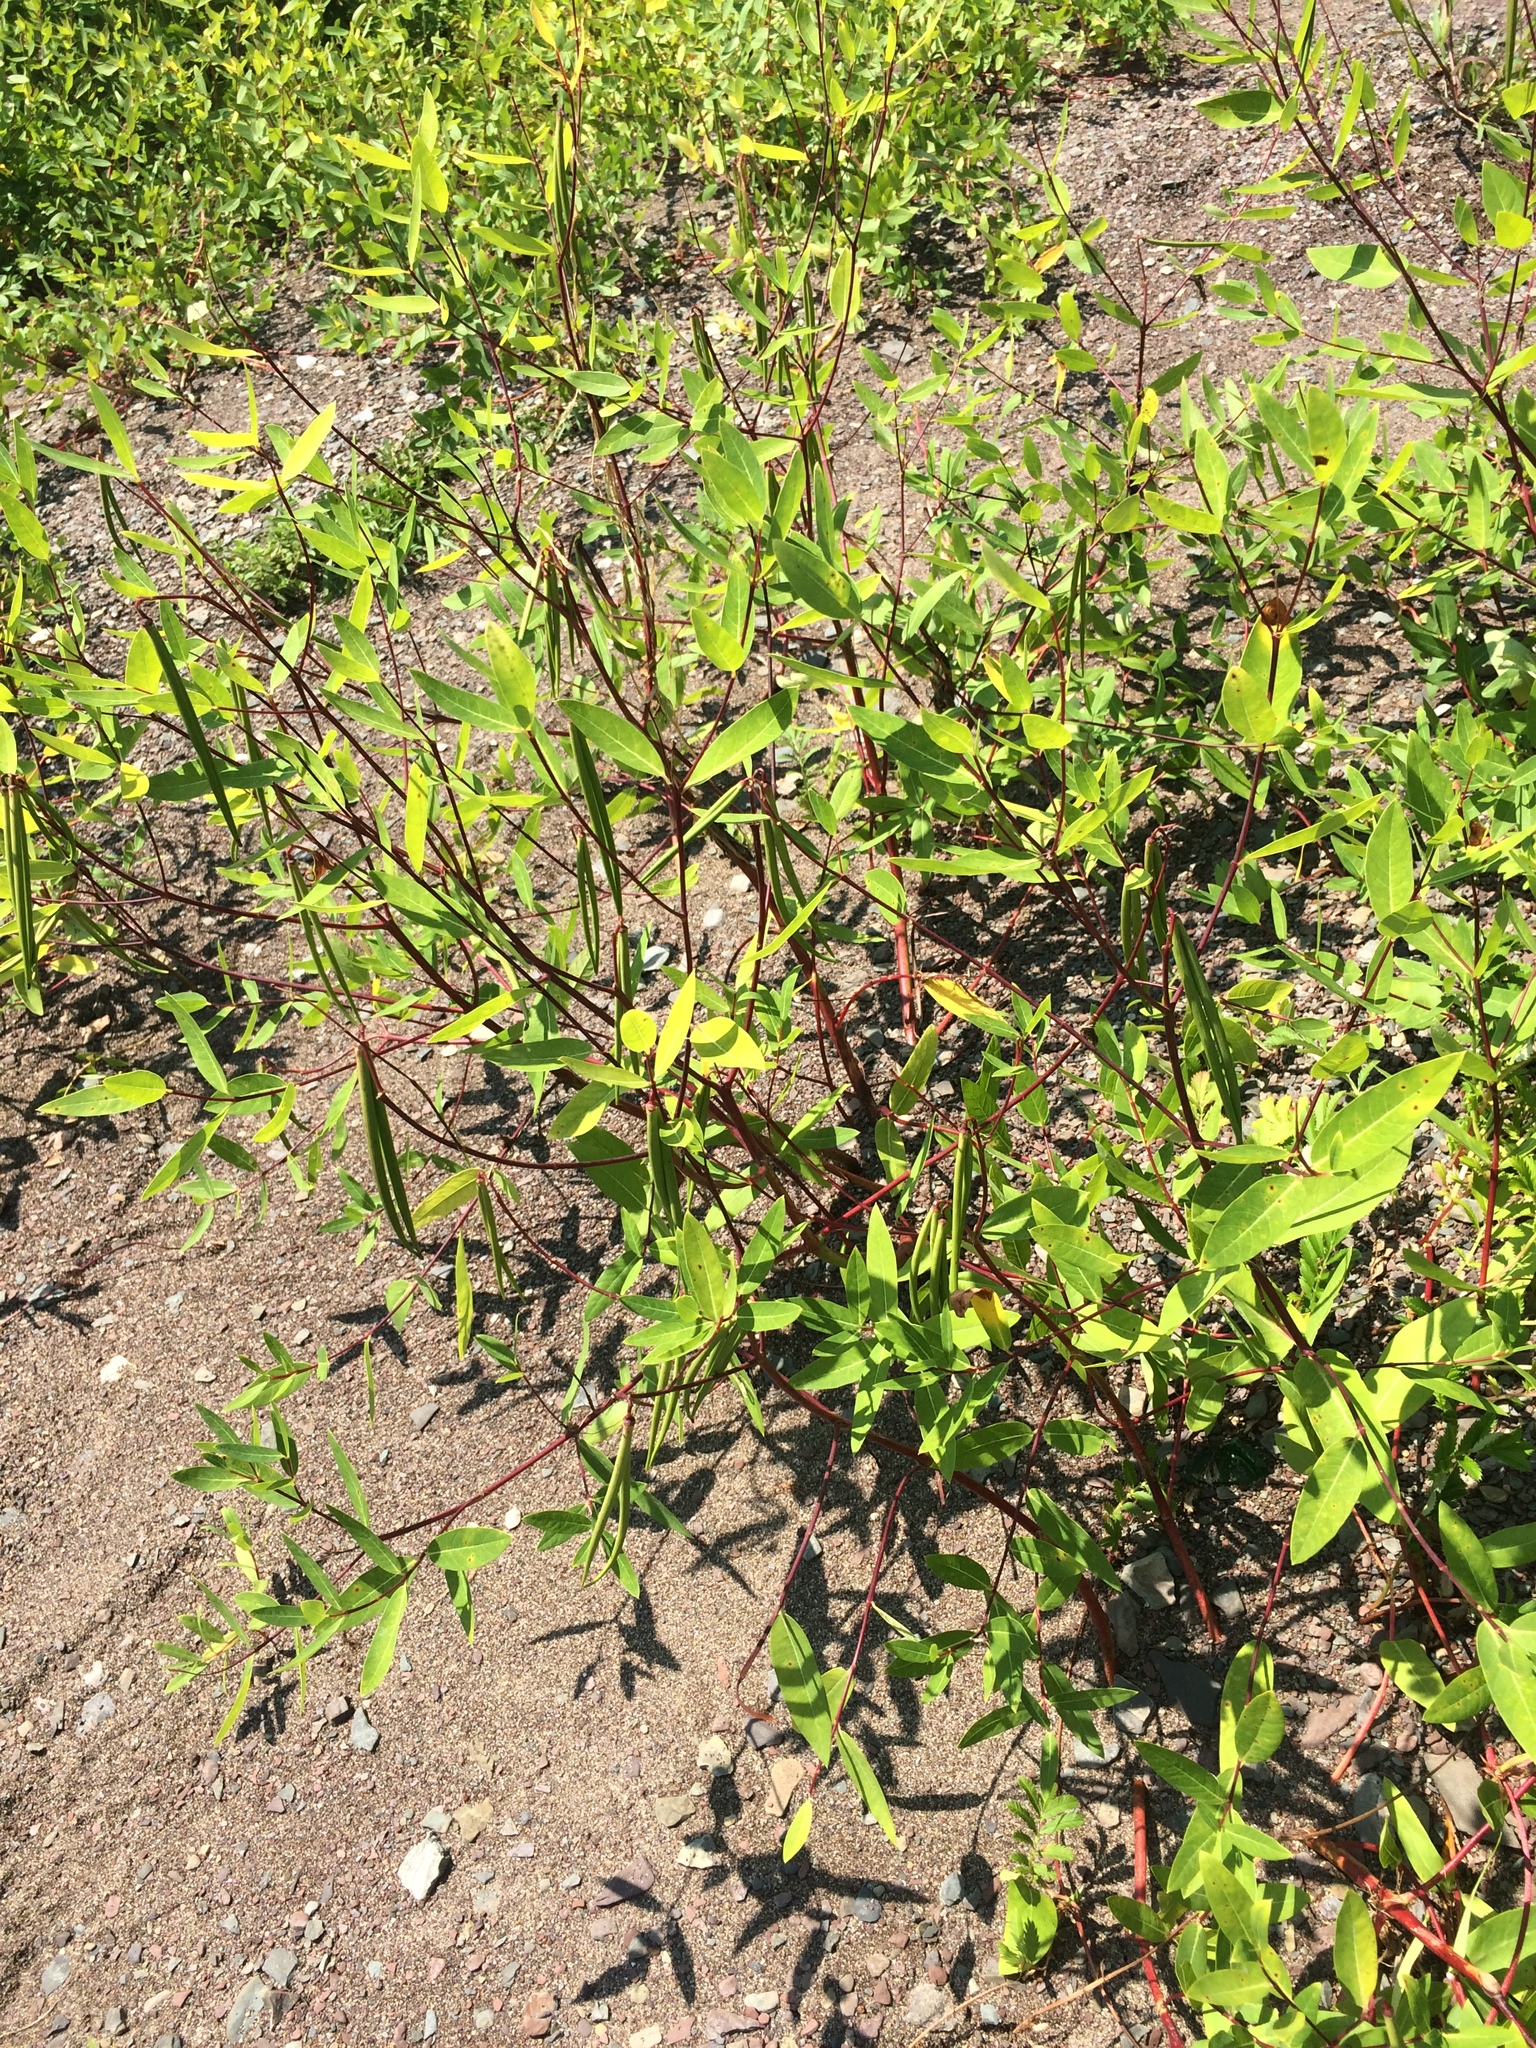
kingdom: Plantae
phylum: Tracheophyta
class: Magnoliopsida
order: Gentianales
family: Apocynaceae
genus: Apocynum
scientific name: Apocynum cannabinum
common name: Hemp dogbane
